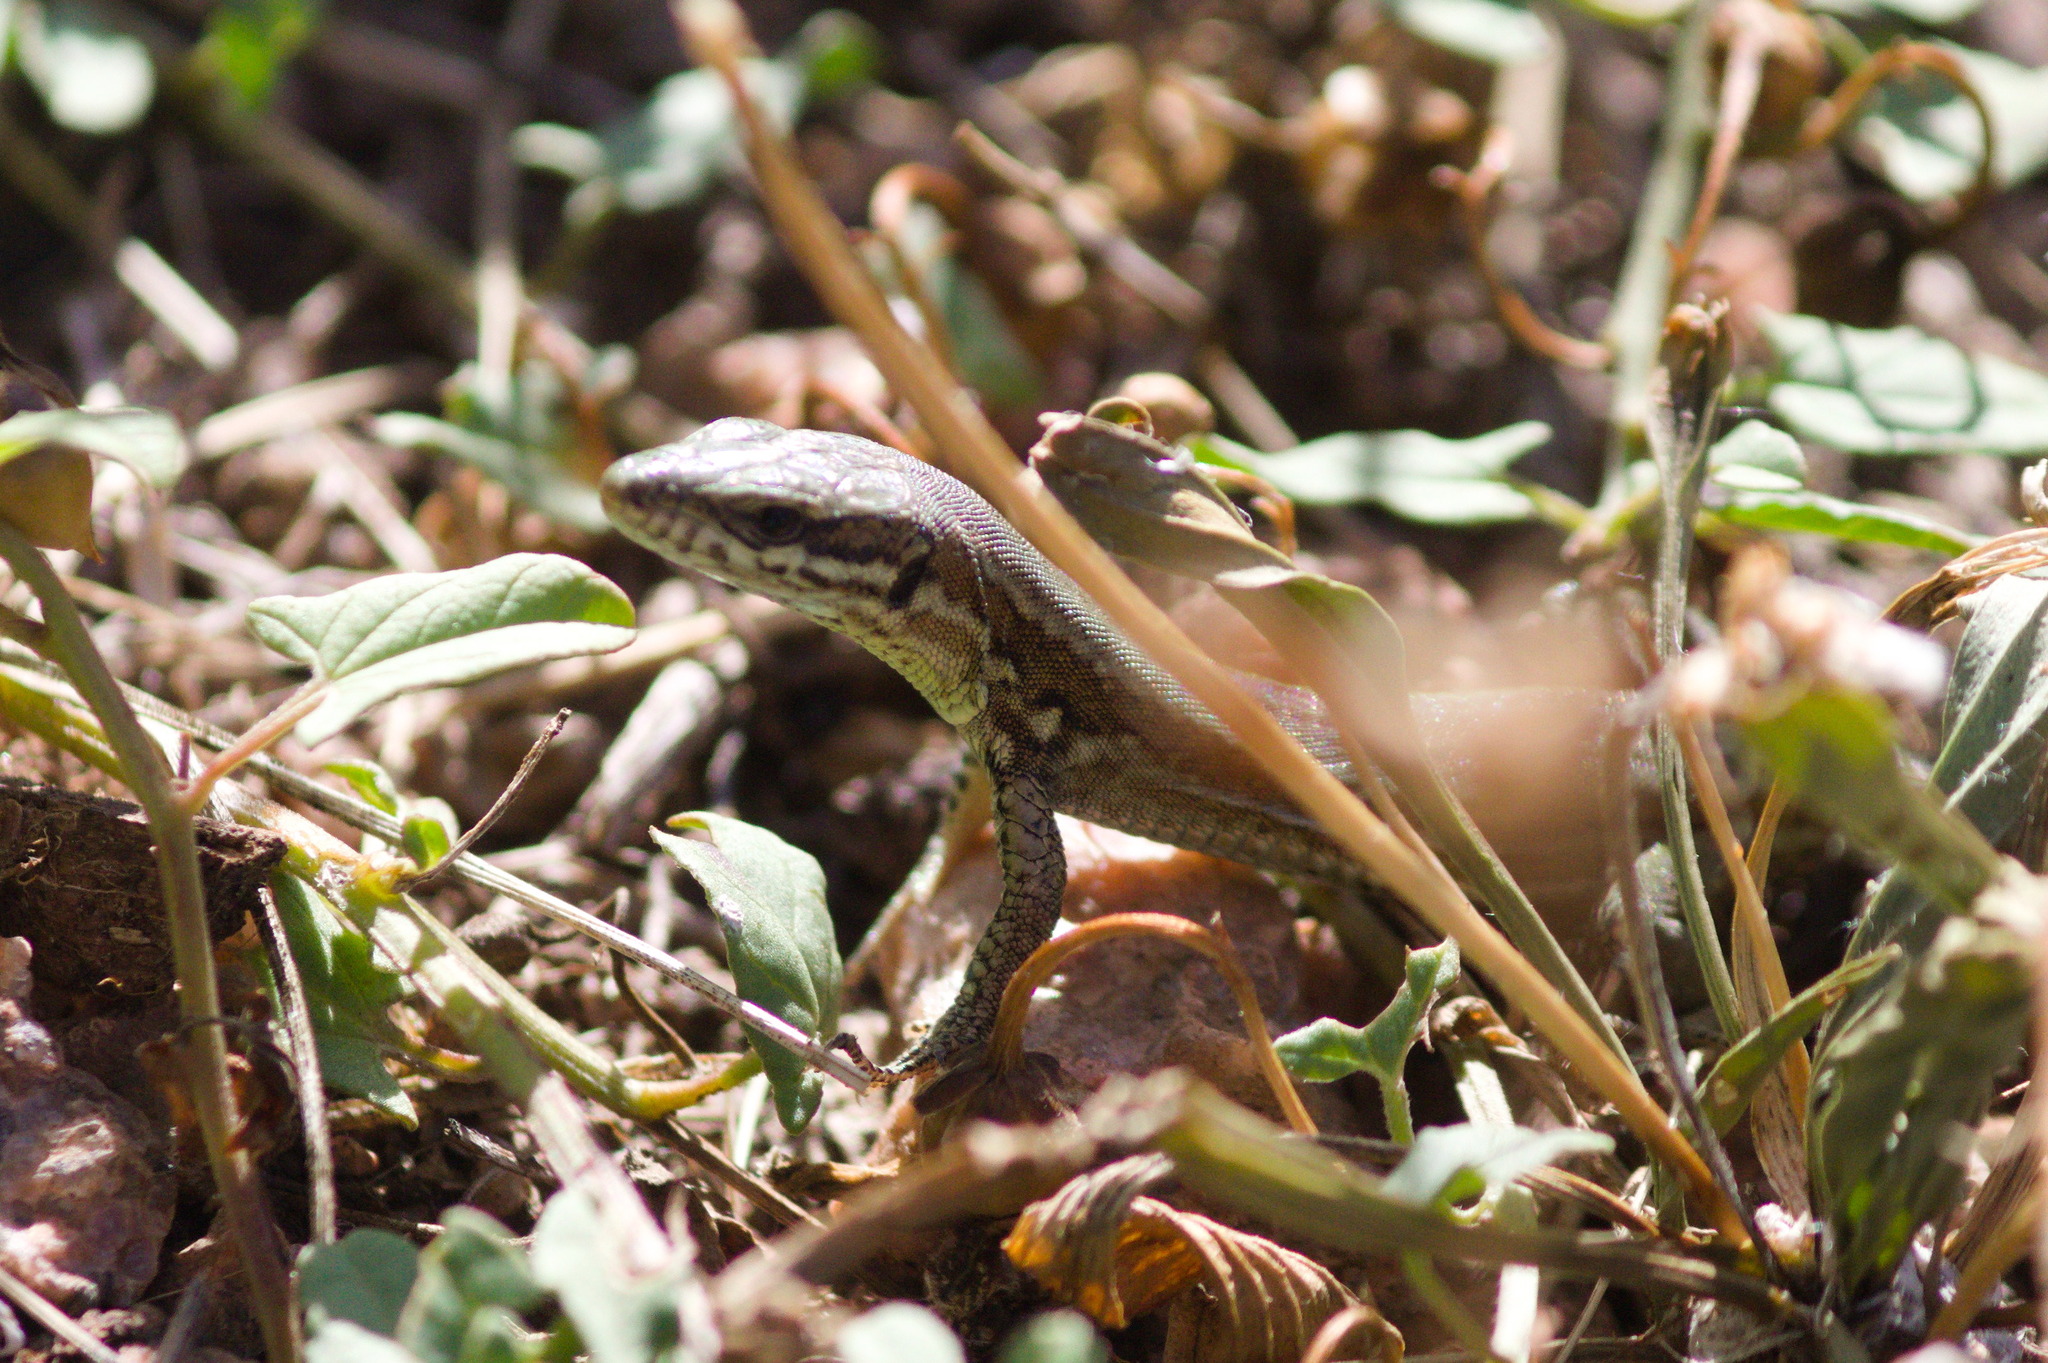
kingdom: Animalia
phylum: Chordata
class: Squamata
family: Lacertidae
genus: Podarcis
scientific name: Podarcis muralis
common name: Common wall lizard
